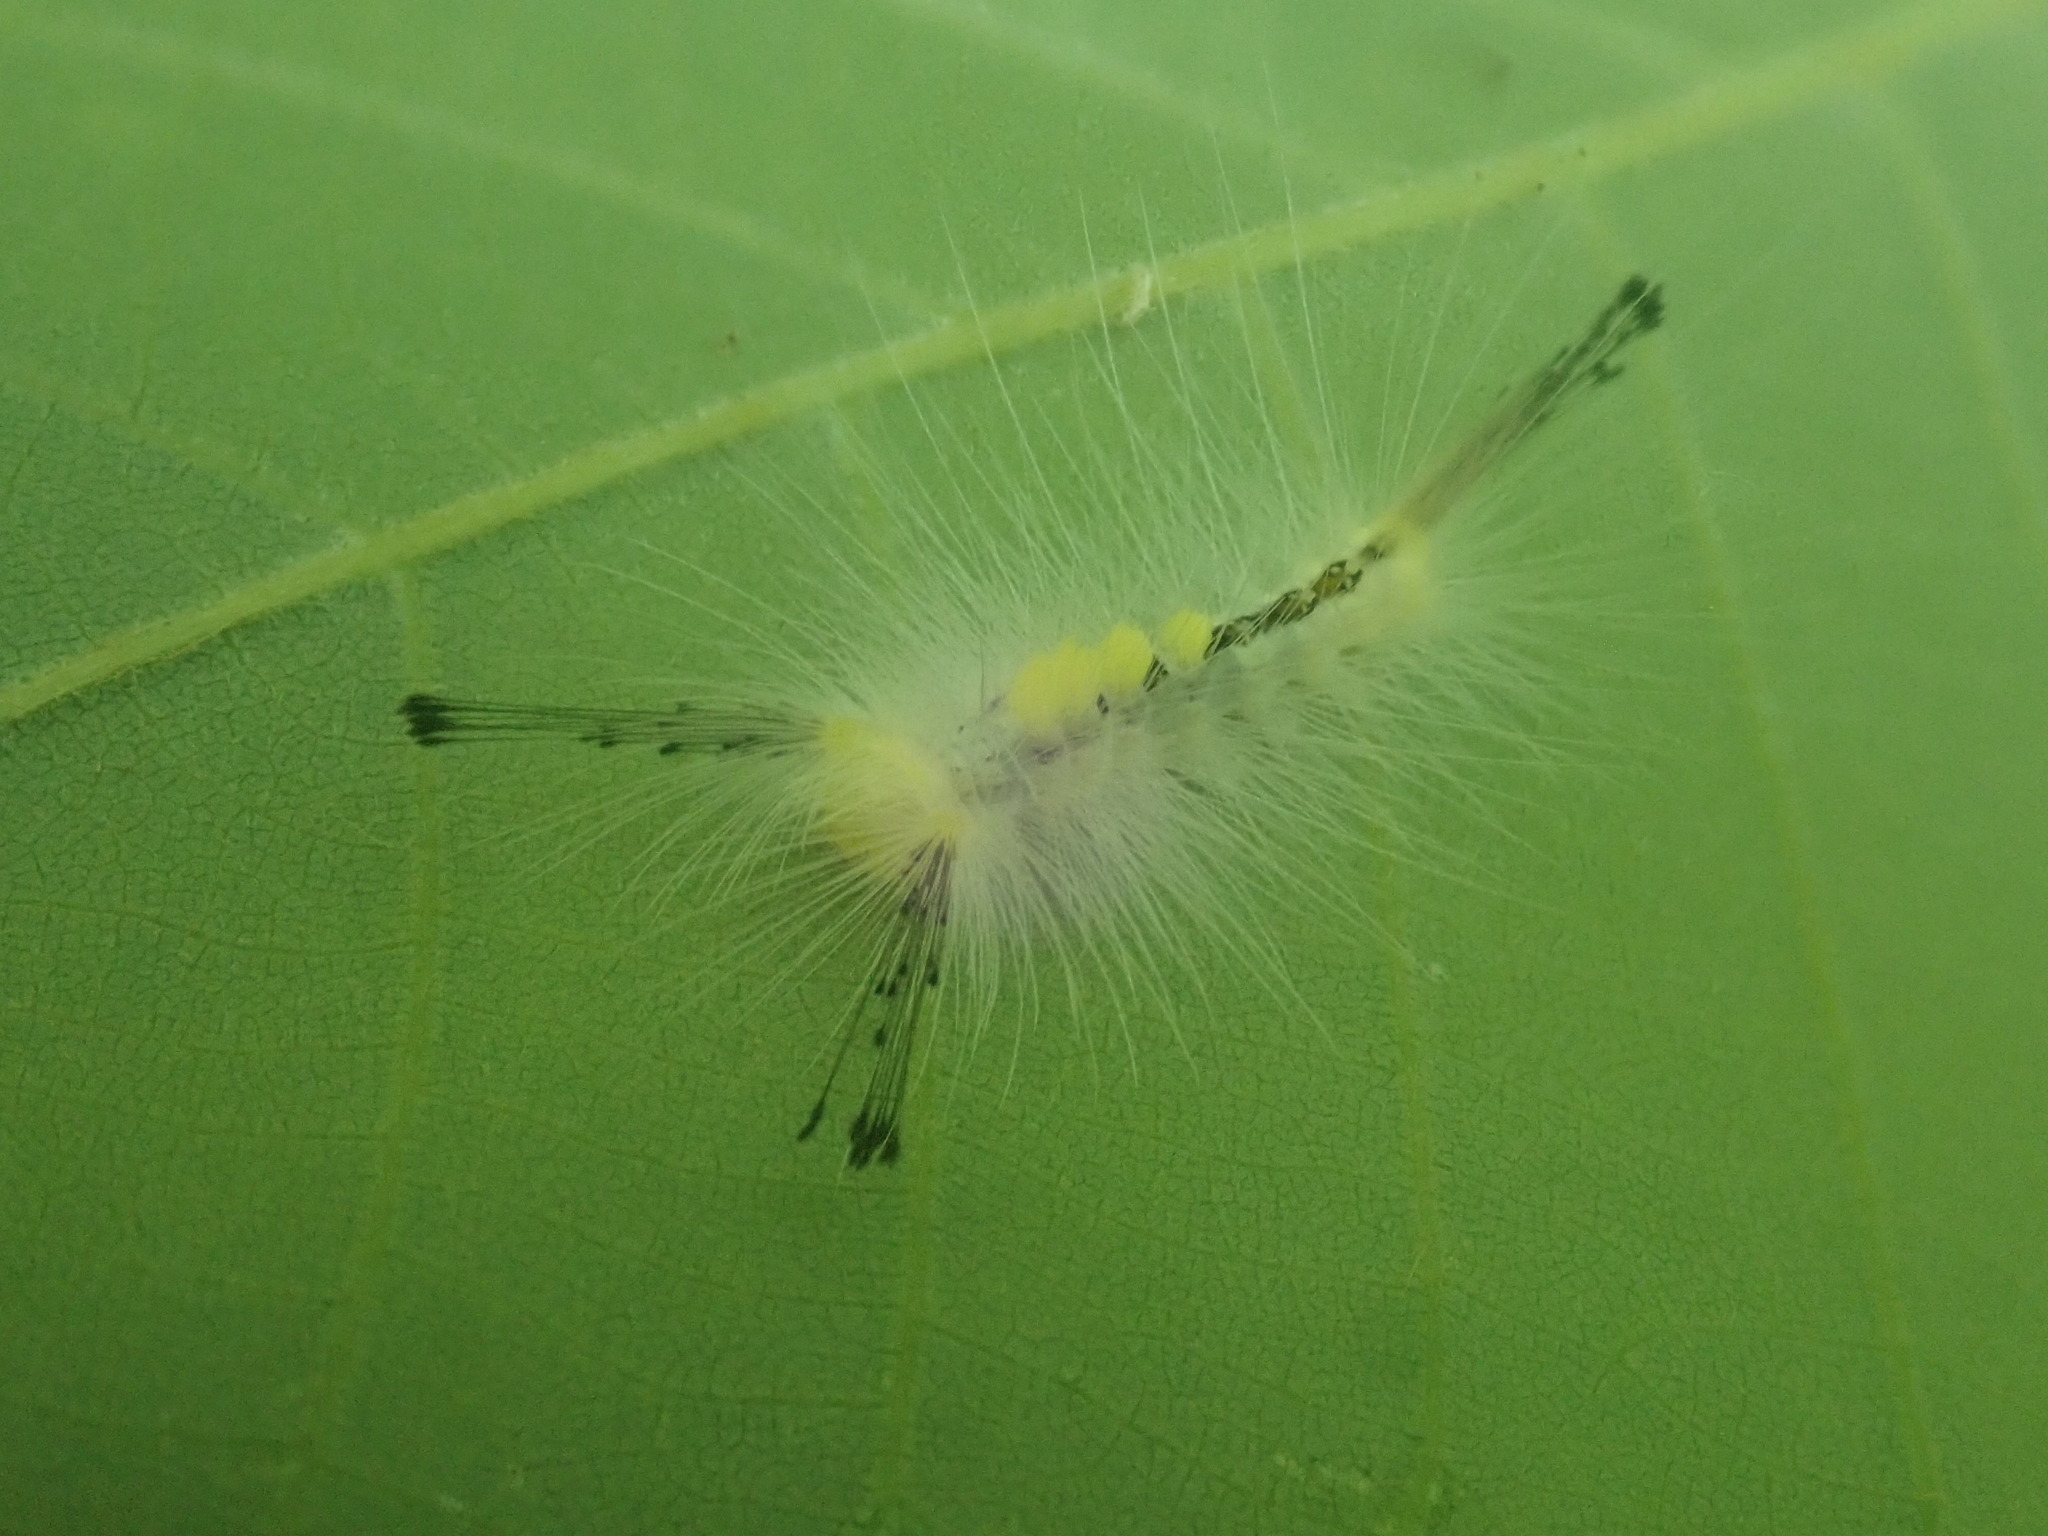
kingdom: Animalia
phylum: Arthropoda
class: Insecta
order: Lepidoptera
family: Erebidae
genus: Orgyia
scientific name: Orgyia definita
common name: Definite tussock moth
